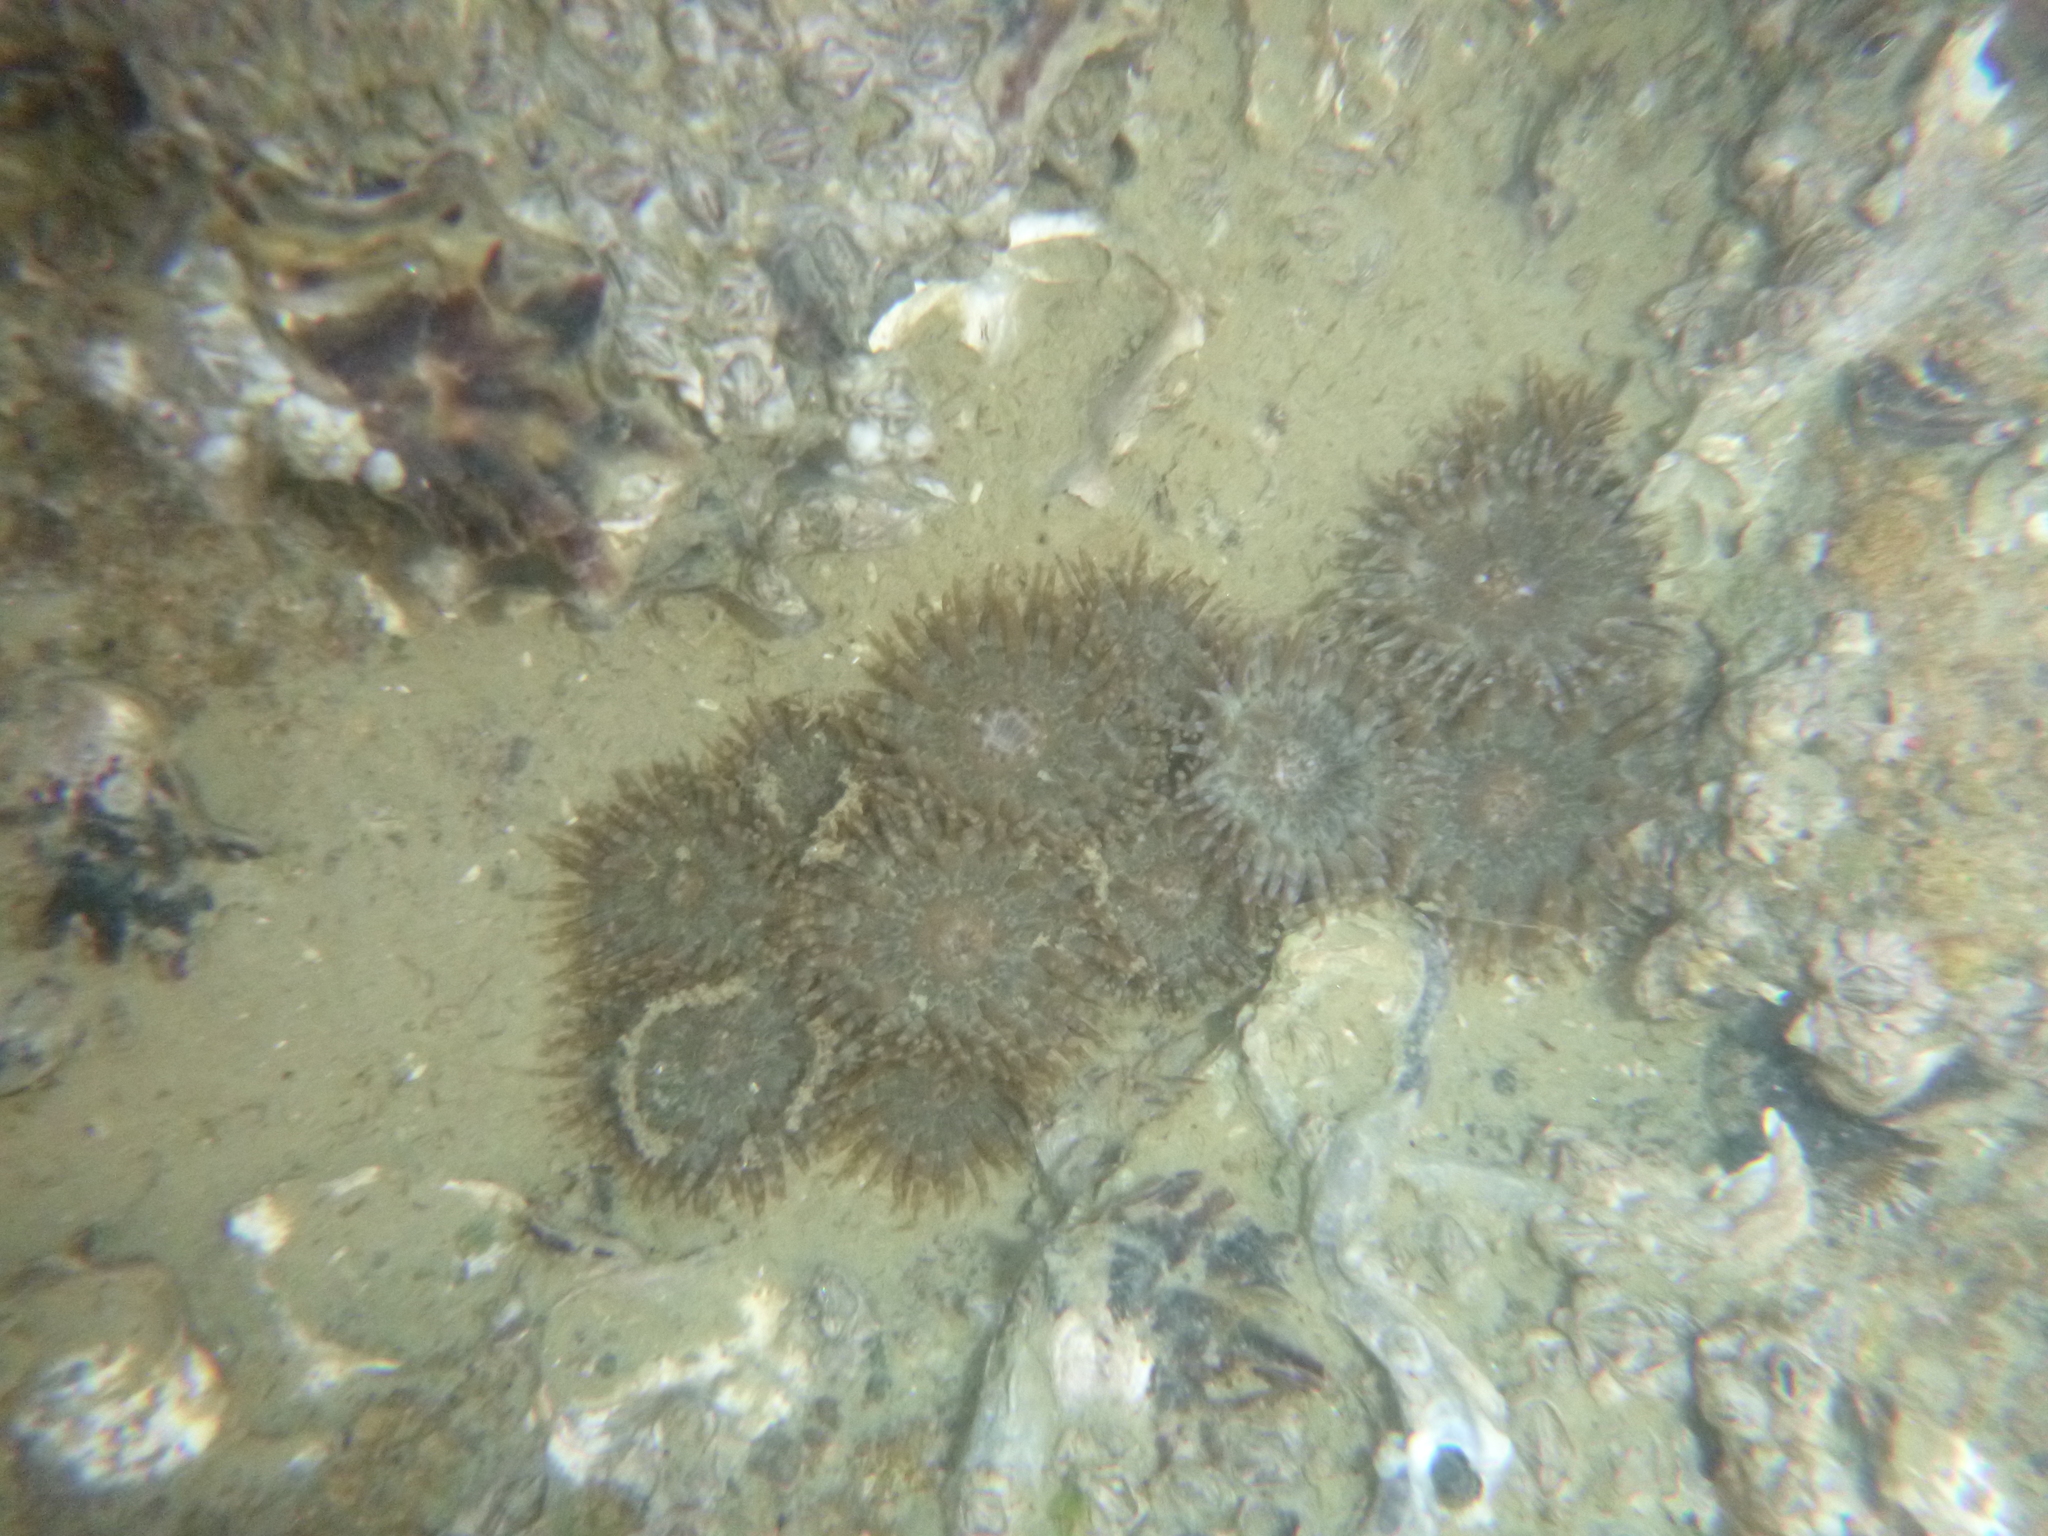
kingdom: Animalia
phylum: Cnidaria
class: Anthozoa
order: Actiniaria
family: Actiniidae
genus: Anthopleura
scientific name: Anthopleura hermaphroditica
